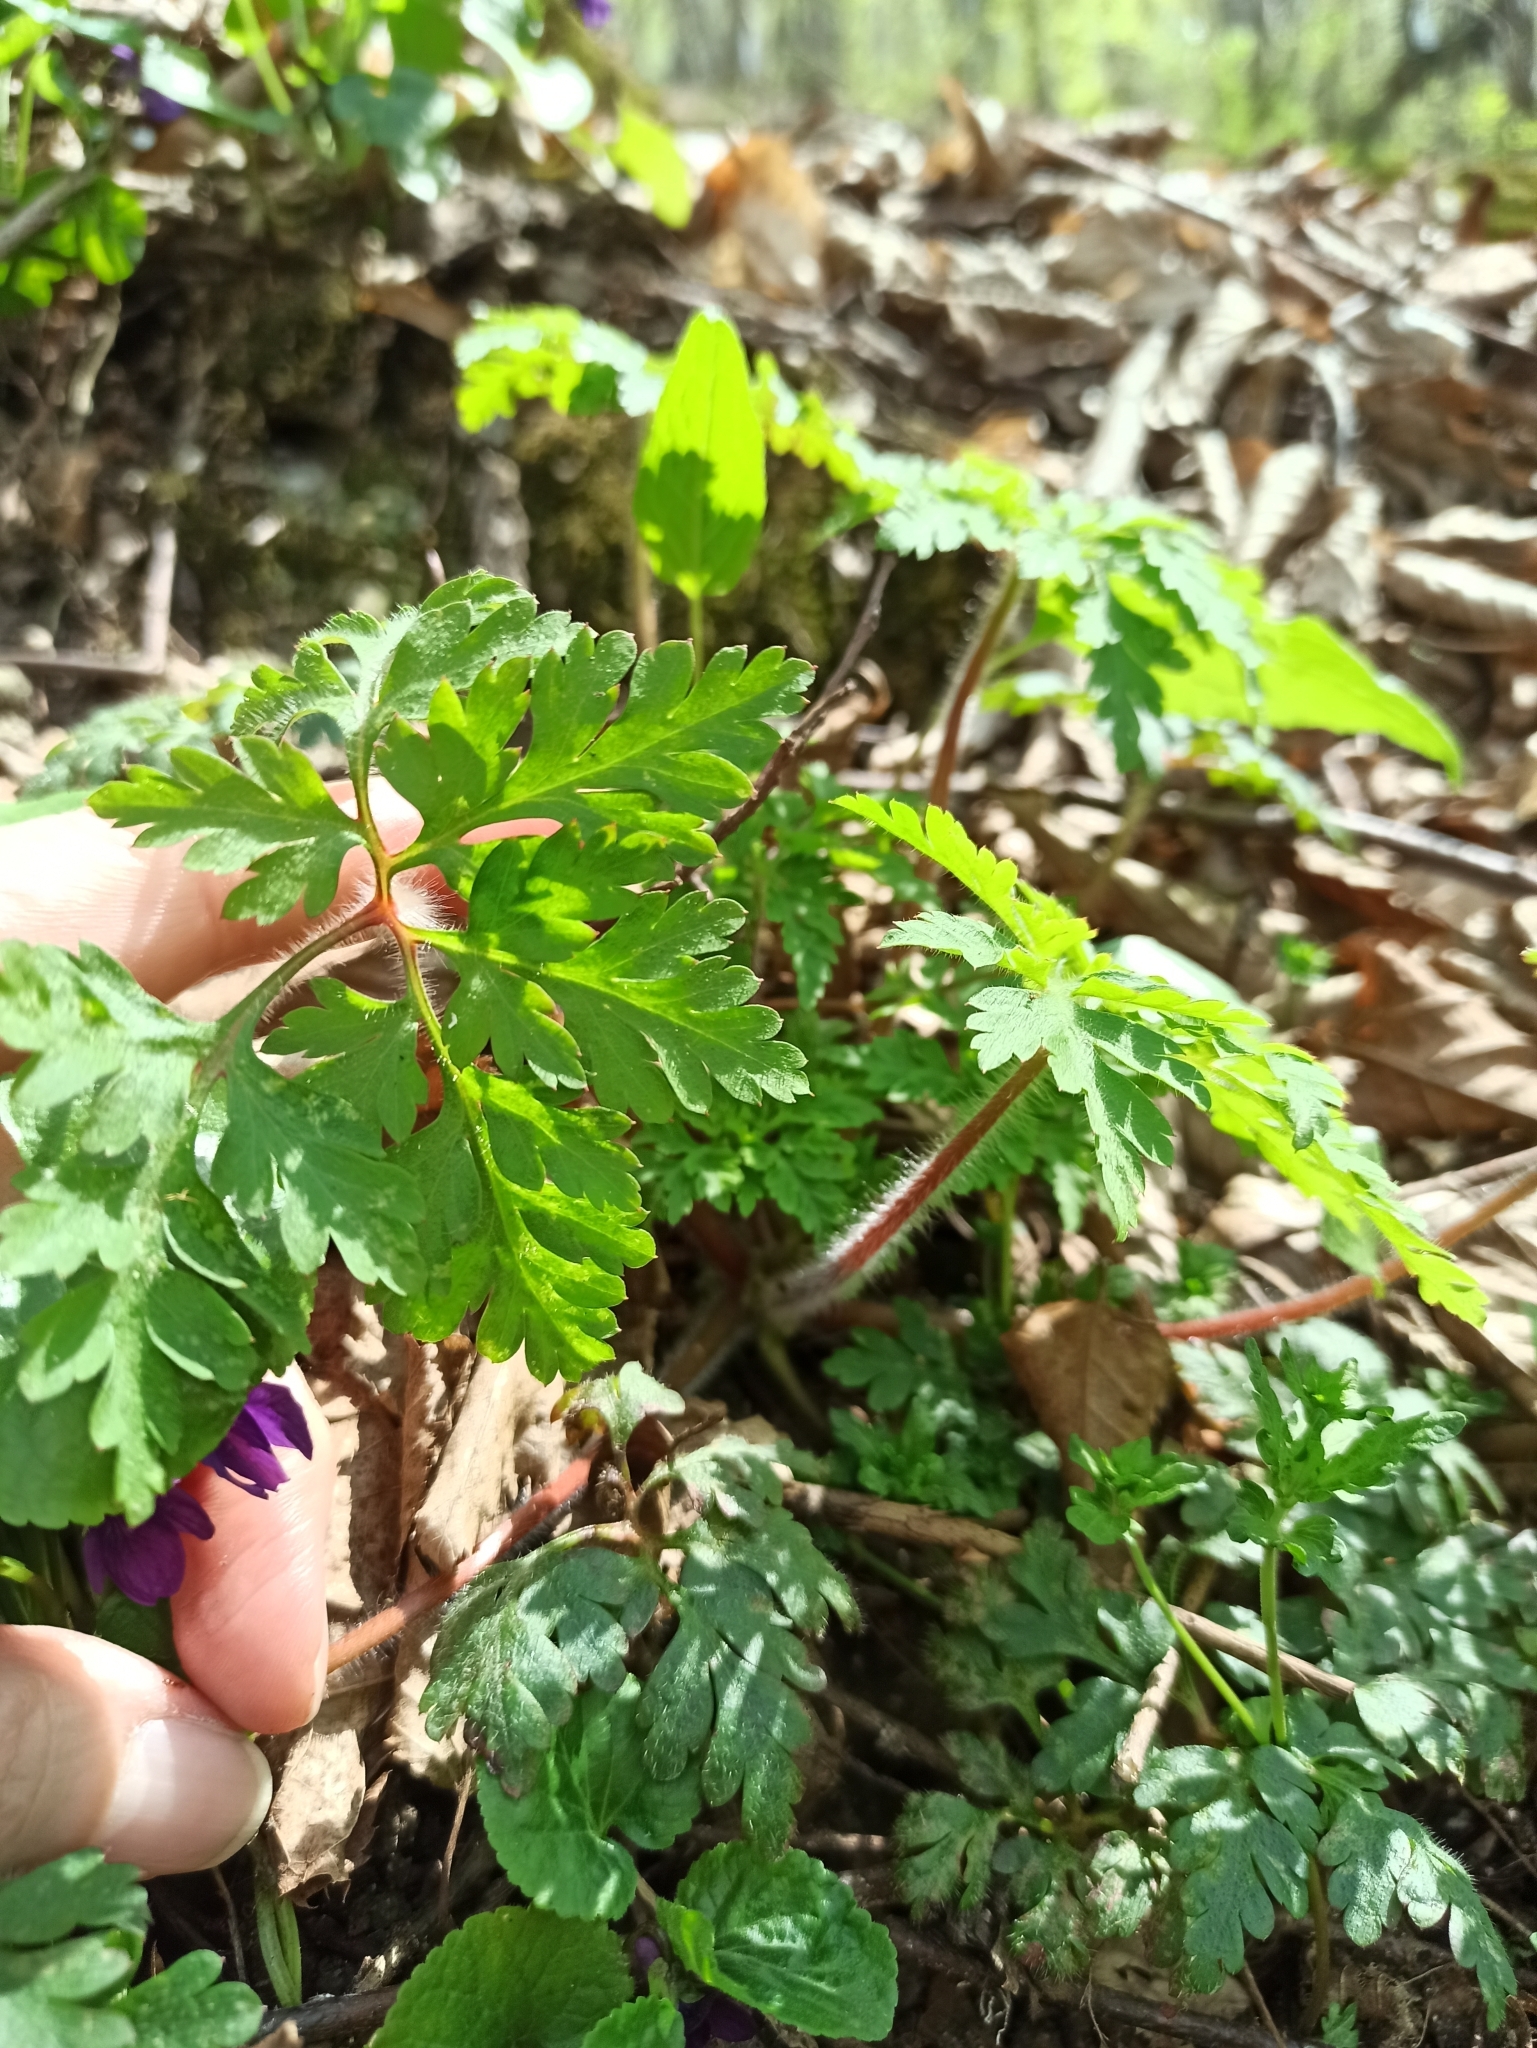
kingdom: Plantae
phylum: Tracheophyta
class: Magnoliopsida
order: Geraniales
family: Geraniaceae
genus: Geranium
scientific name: Geranium robertianum
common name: Herb-robert
